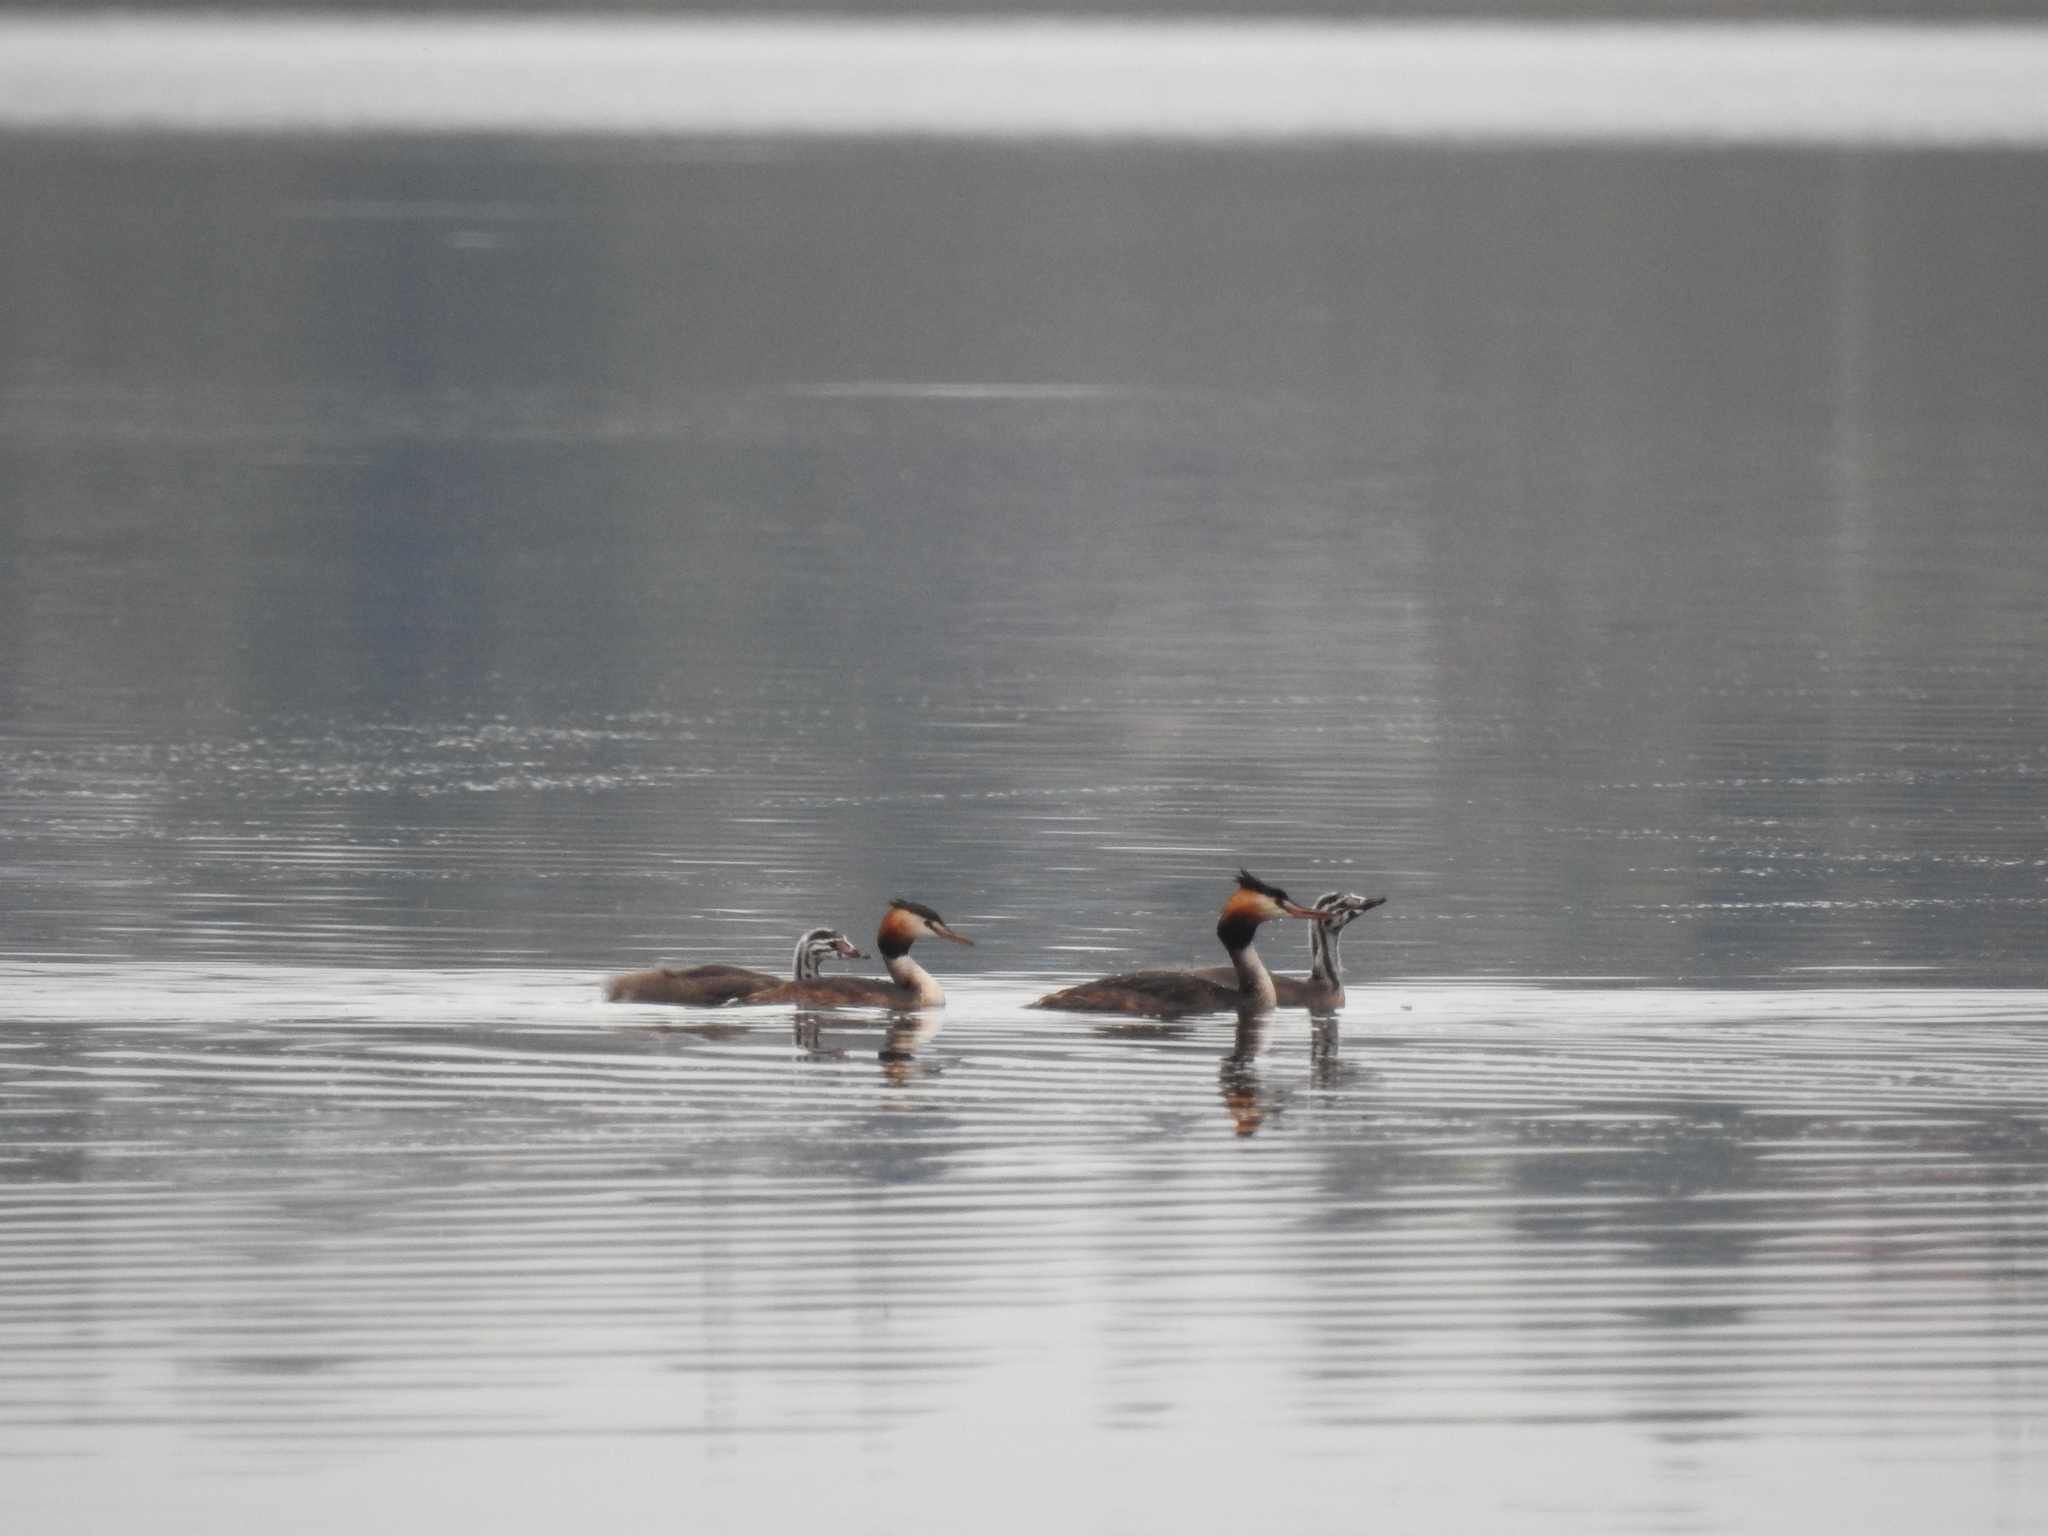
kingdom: Animalia
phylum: Chordata
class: Aves
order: Podicipediformes
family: Podicipedidae
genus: Podiceps
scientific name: Podiceps cristatus
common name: Great crested grebe
